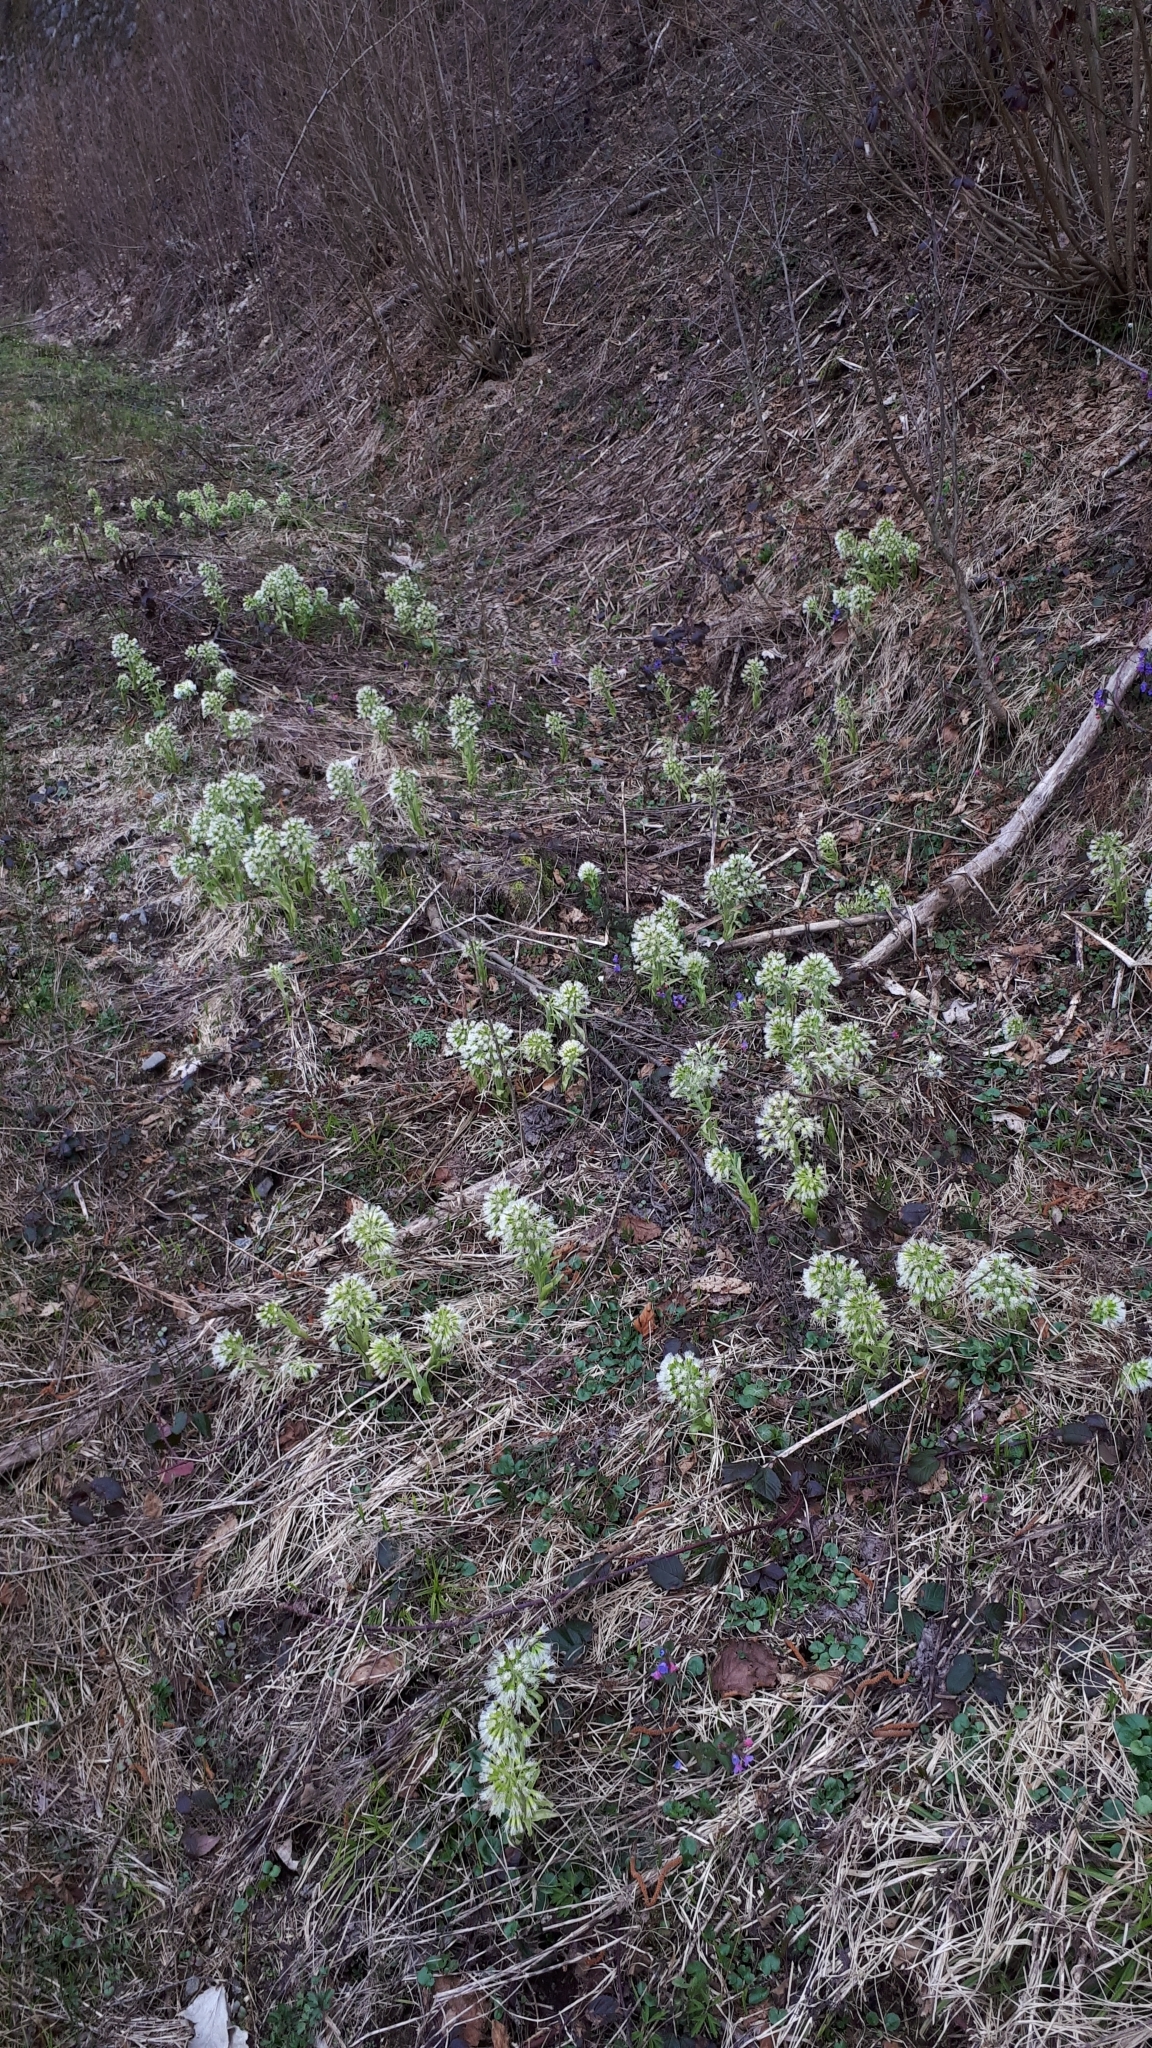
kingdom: Plantae
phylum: Tracheophyta
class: Magnoliopsida
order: Asterales
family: Asteraceae
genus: Petasites
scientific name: Petasites albus
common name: White butterbur
